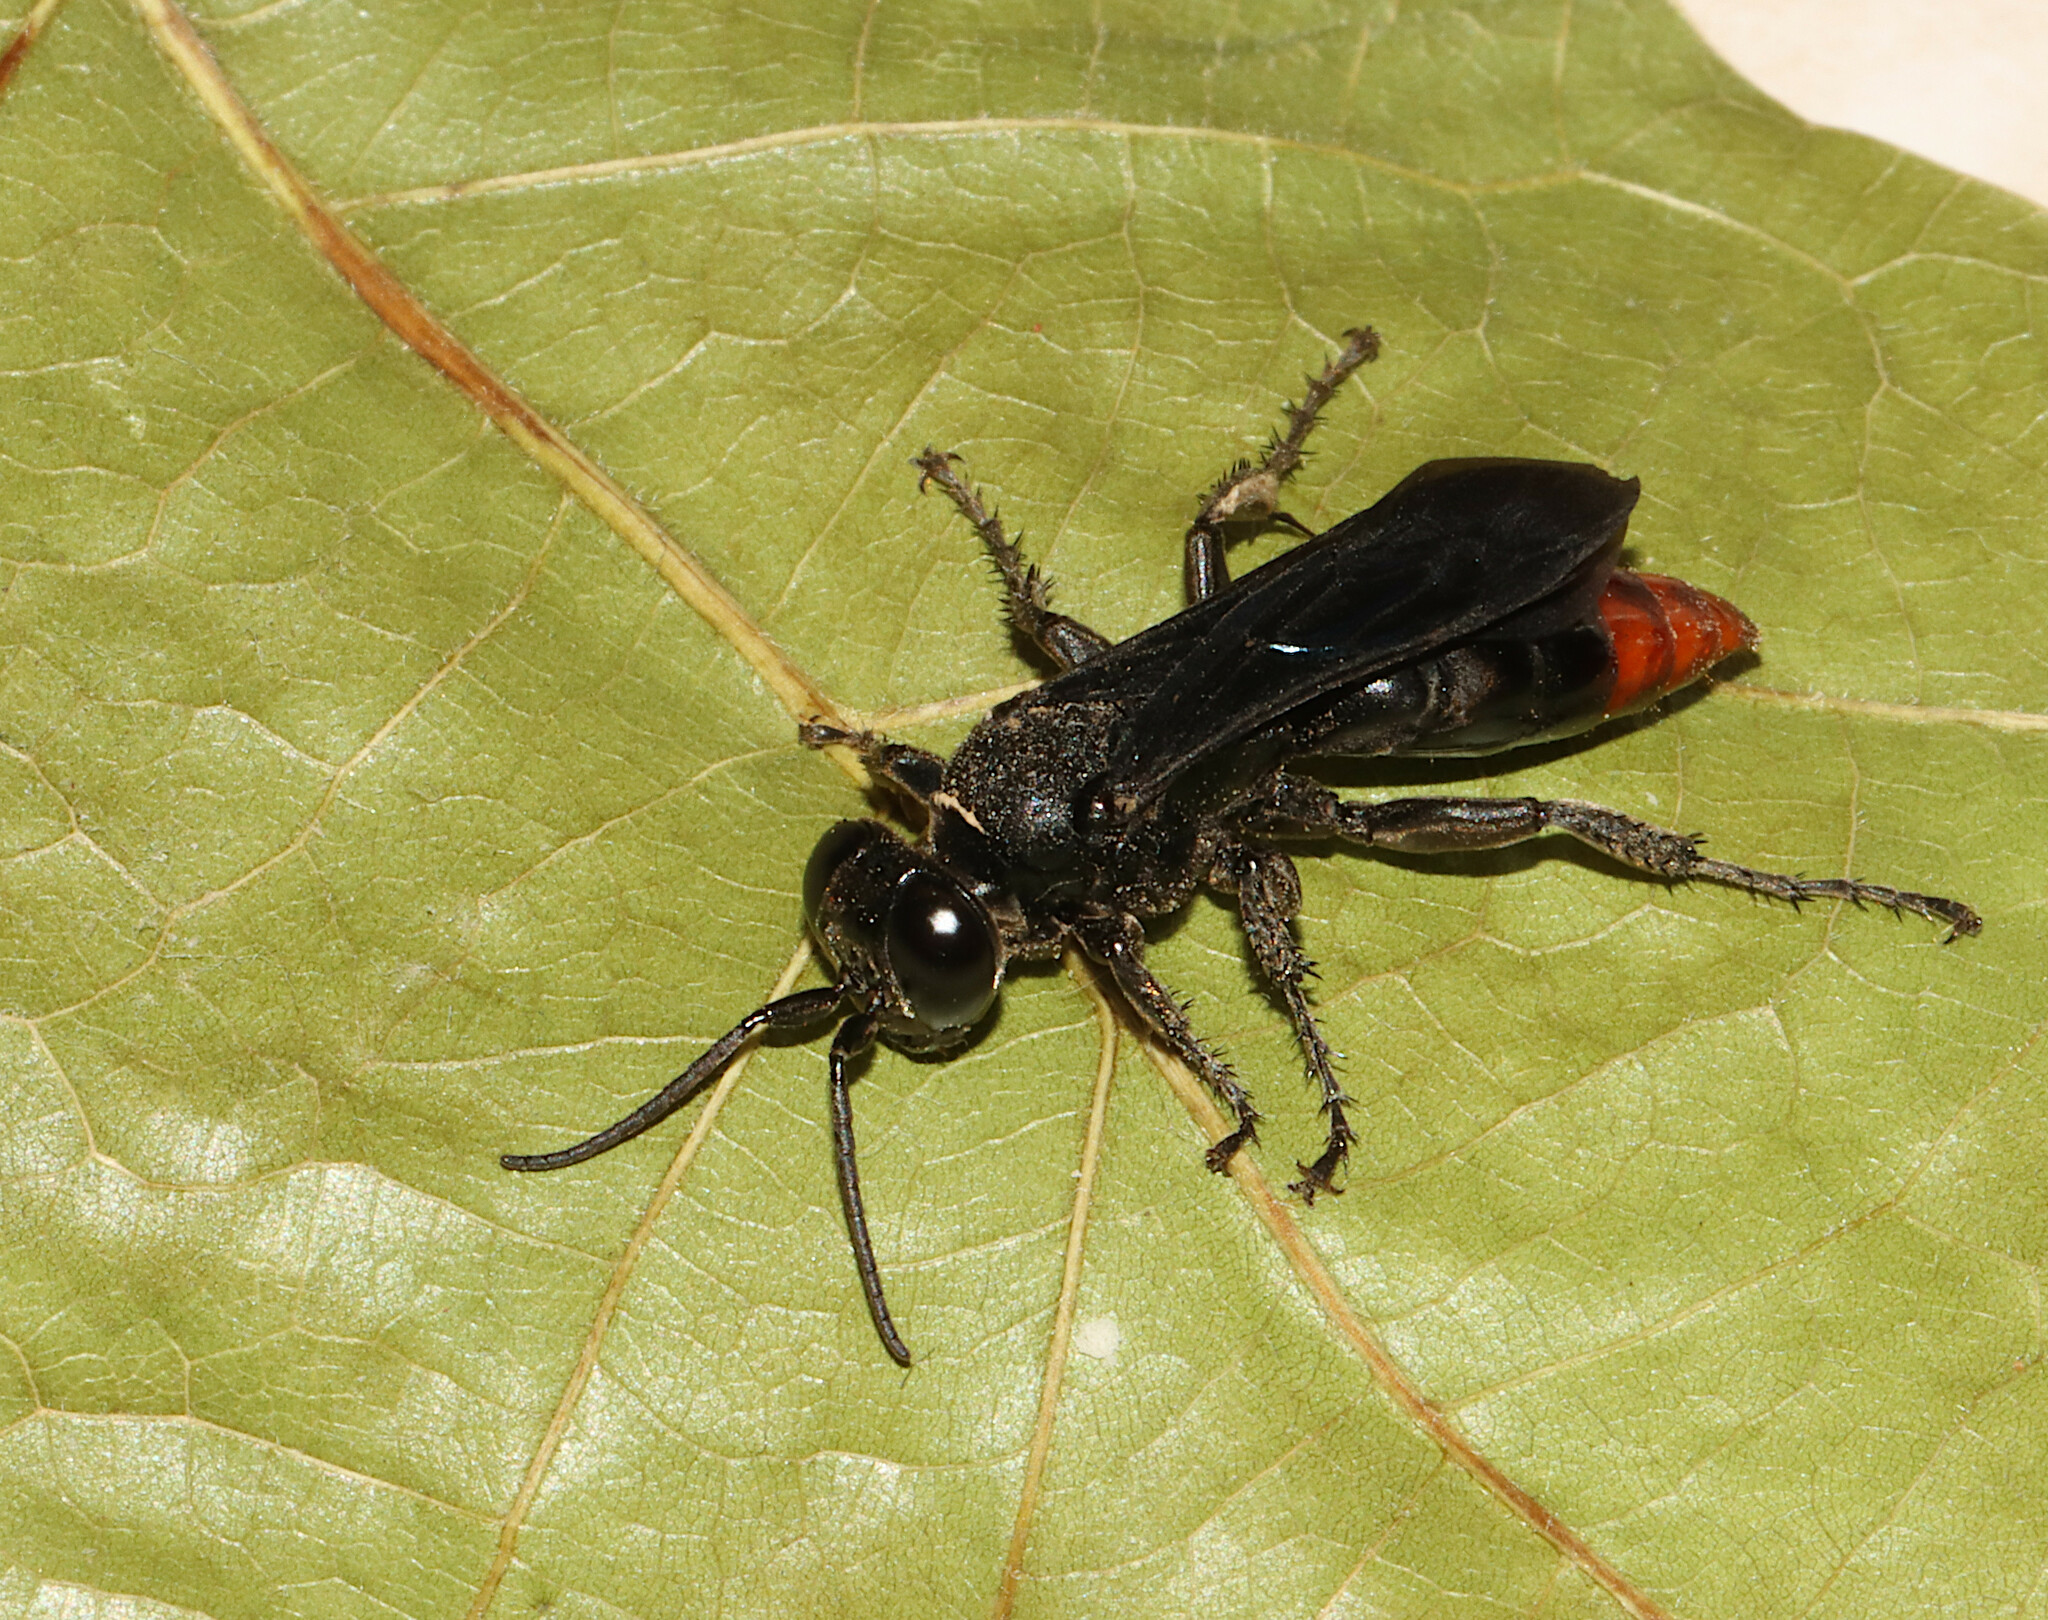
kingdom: Animalia
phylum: Arthropoda
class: Insecta
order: Hymenoptera
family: Crabronidae
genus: Larra
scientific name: Larra analis
